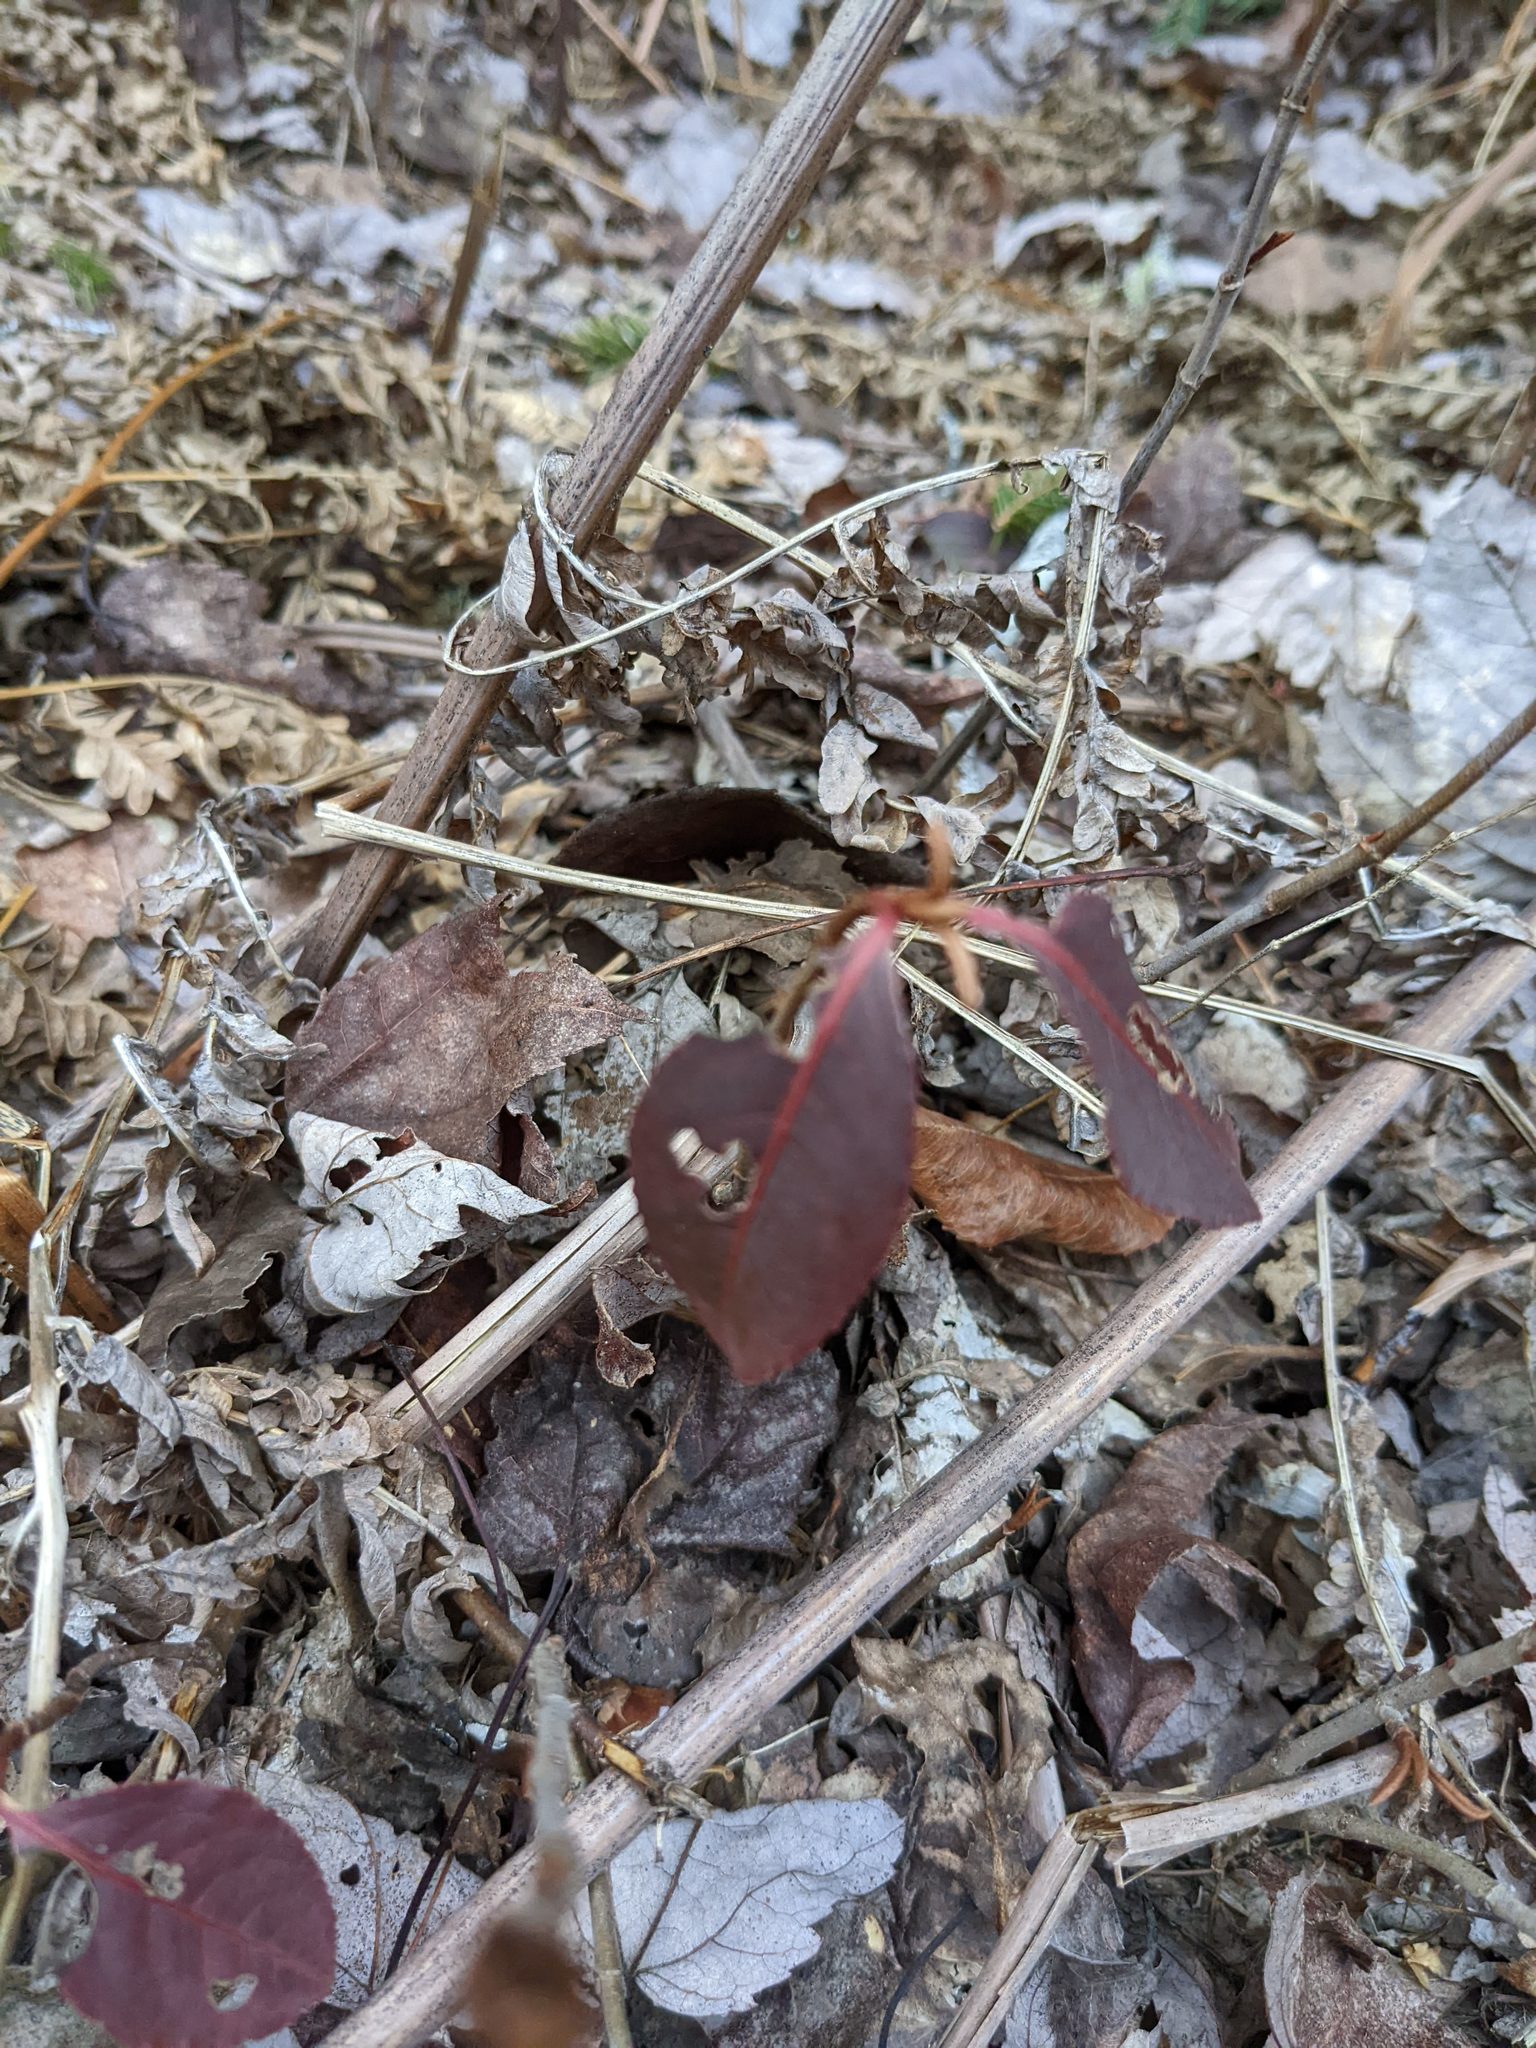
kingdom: Plantae
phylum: Tracheophyta
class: Magnoliopsida
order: Dipsacales
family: Viburnaceae
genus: Viburnum
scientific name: Viburnum cassinoides
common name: Swamp haw
